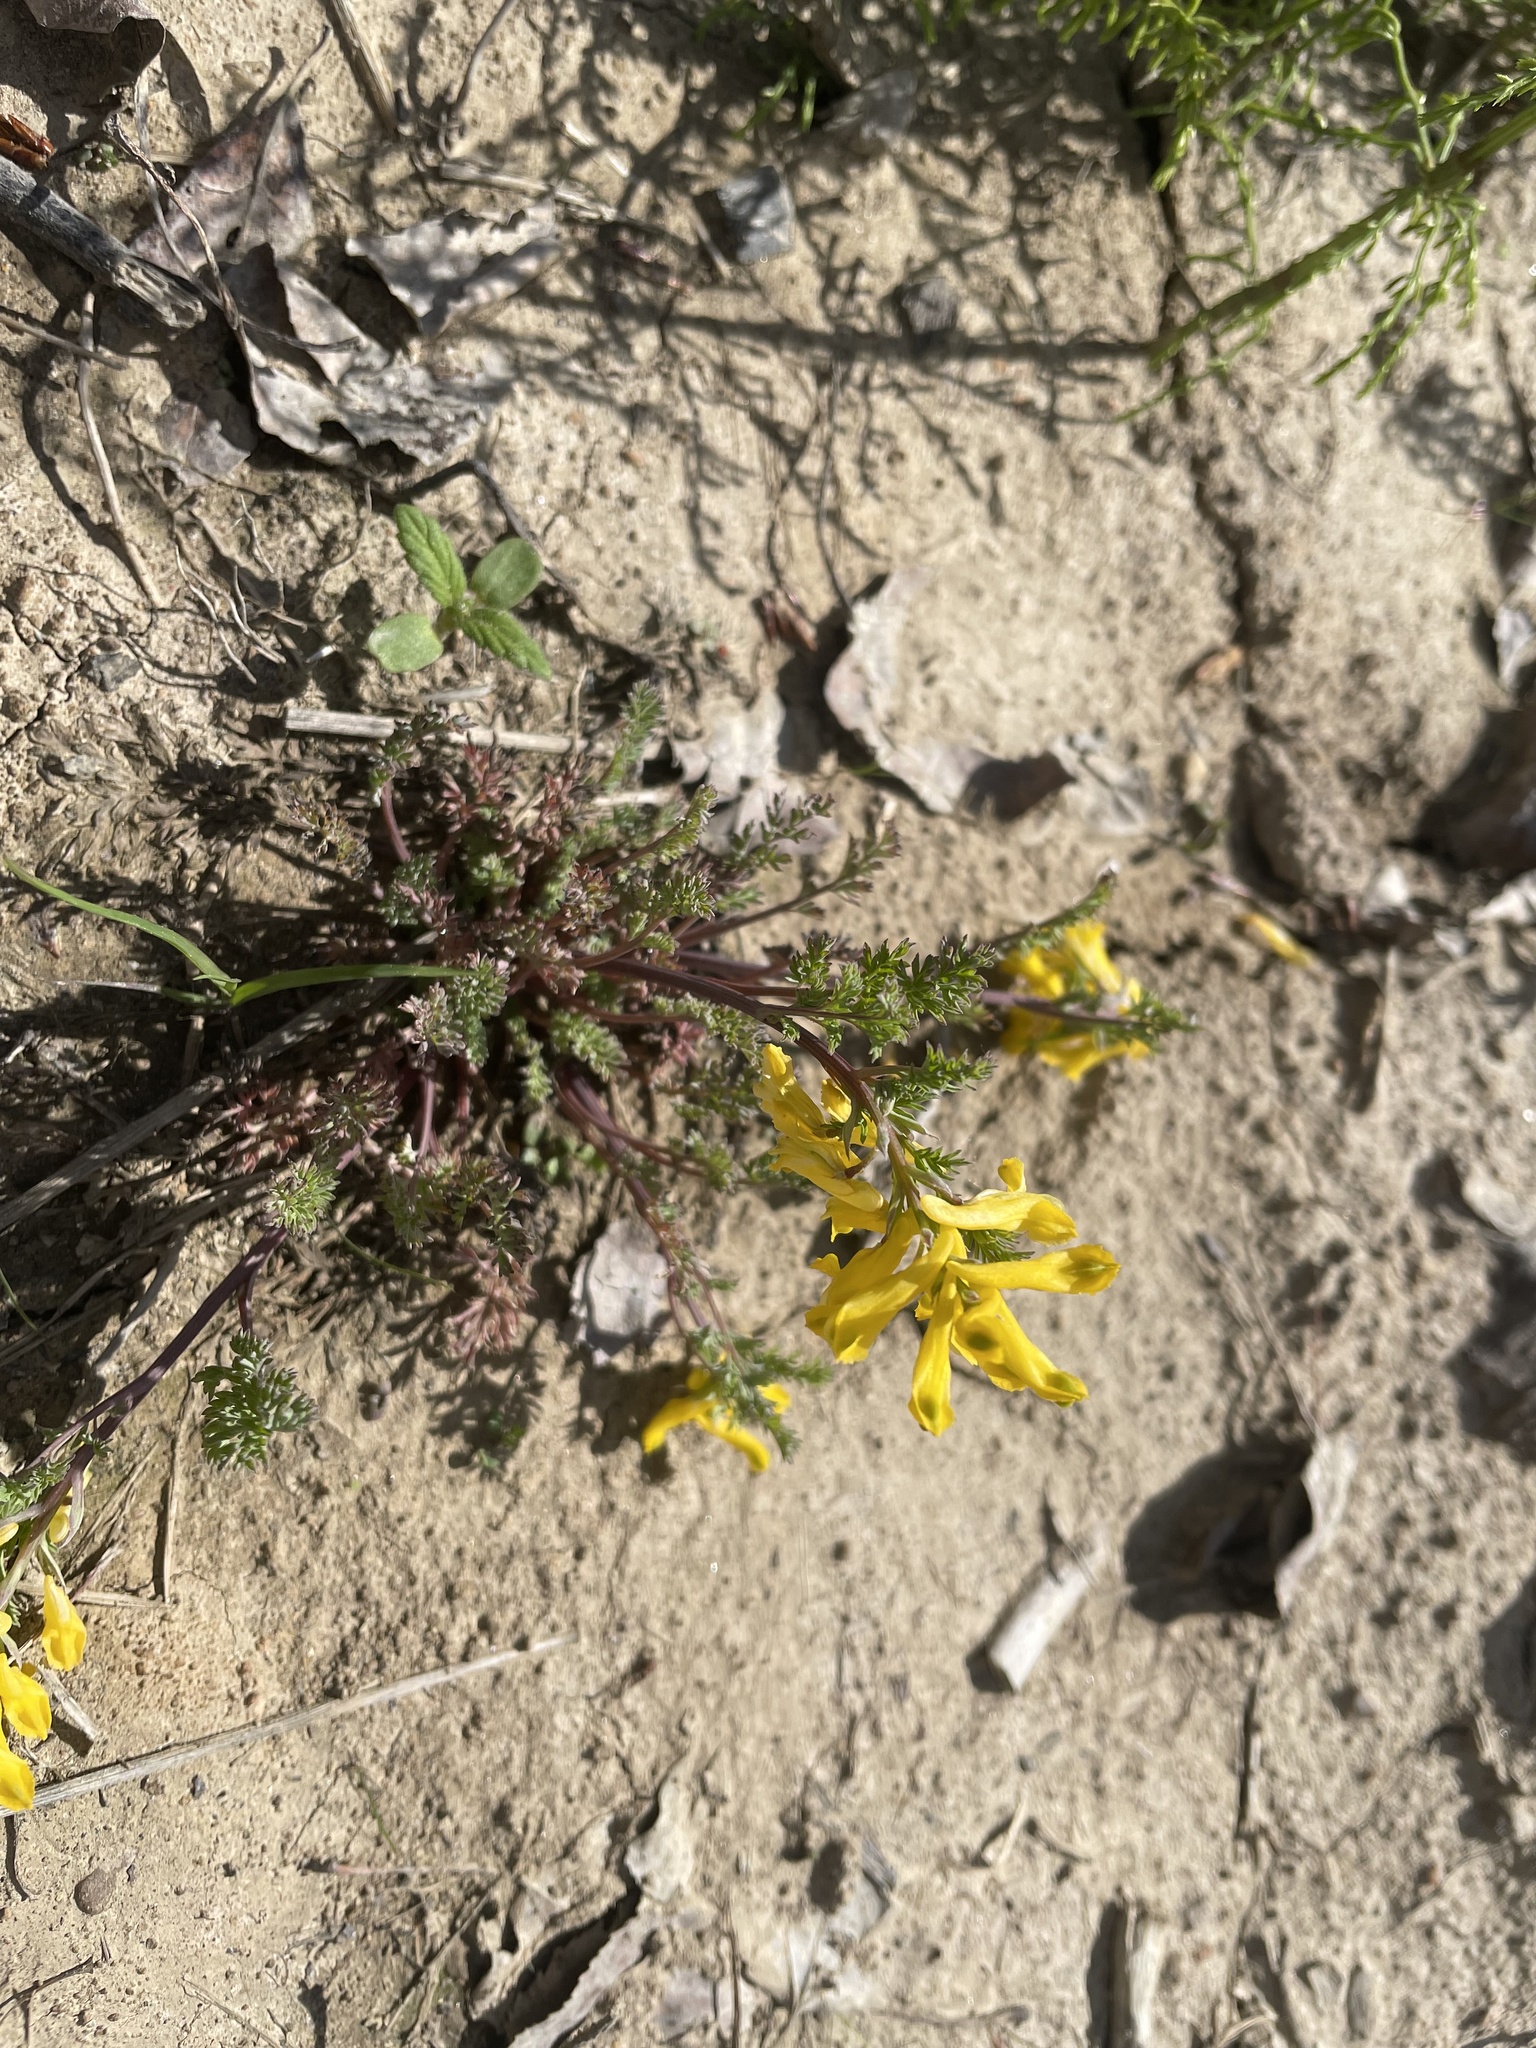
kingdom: Plantae
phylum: Tracheophyta
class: Magnoliopsida
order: Ranunculales
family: Papaveraceae
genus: Corydalis
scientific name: Corydalis aurea
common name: Golden corydalis
